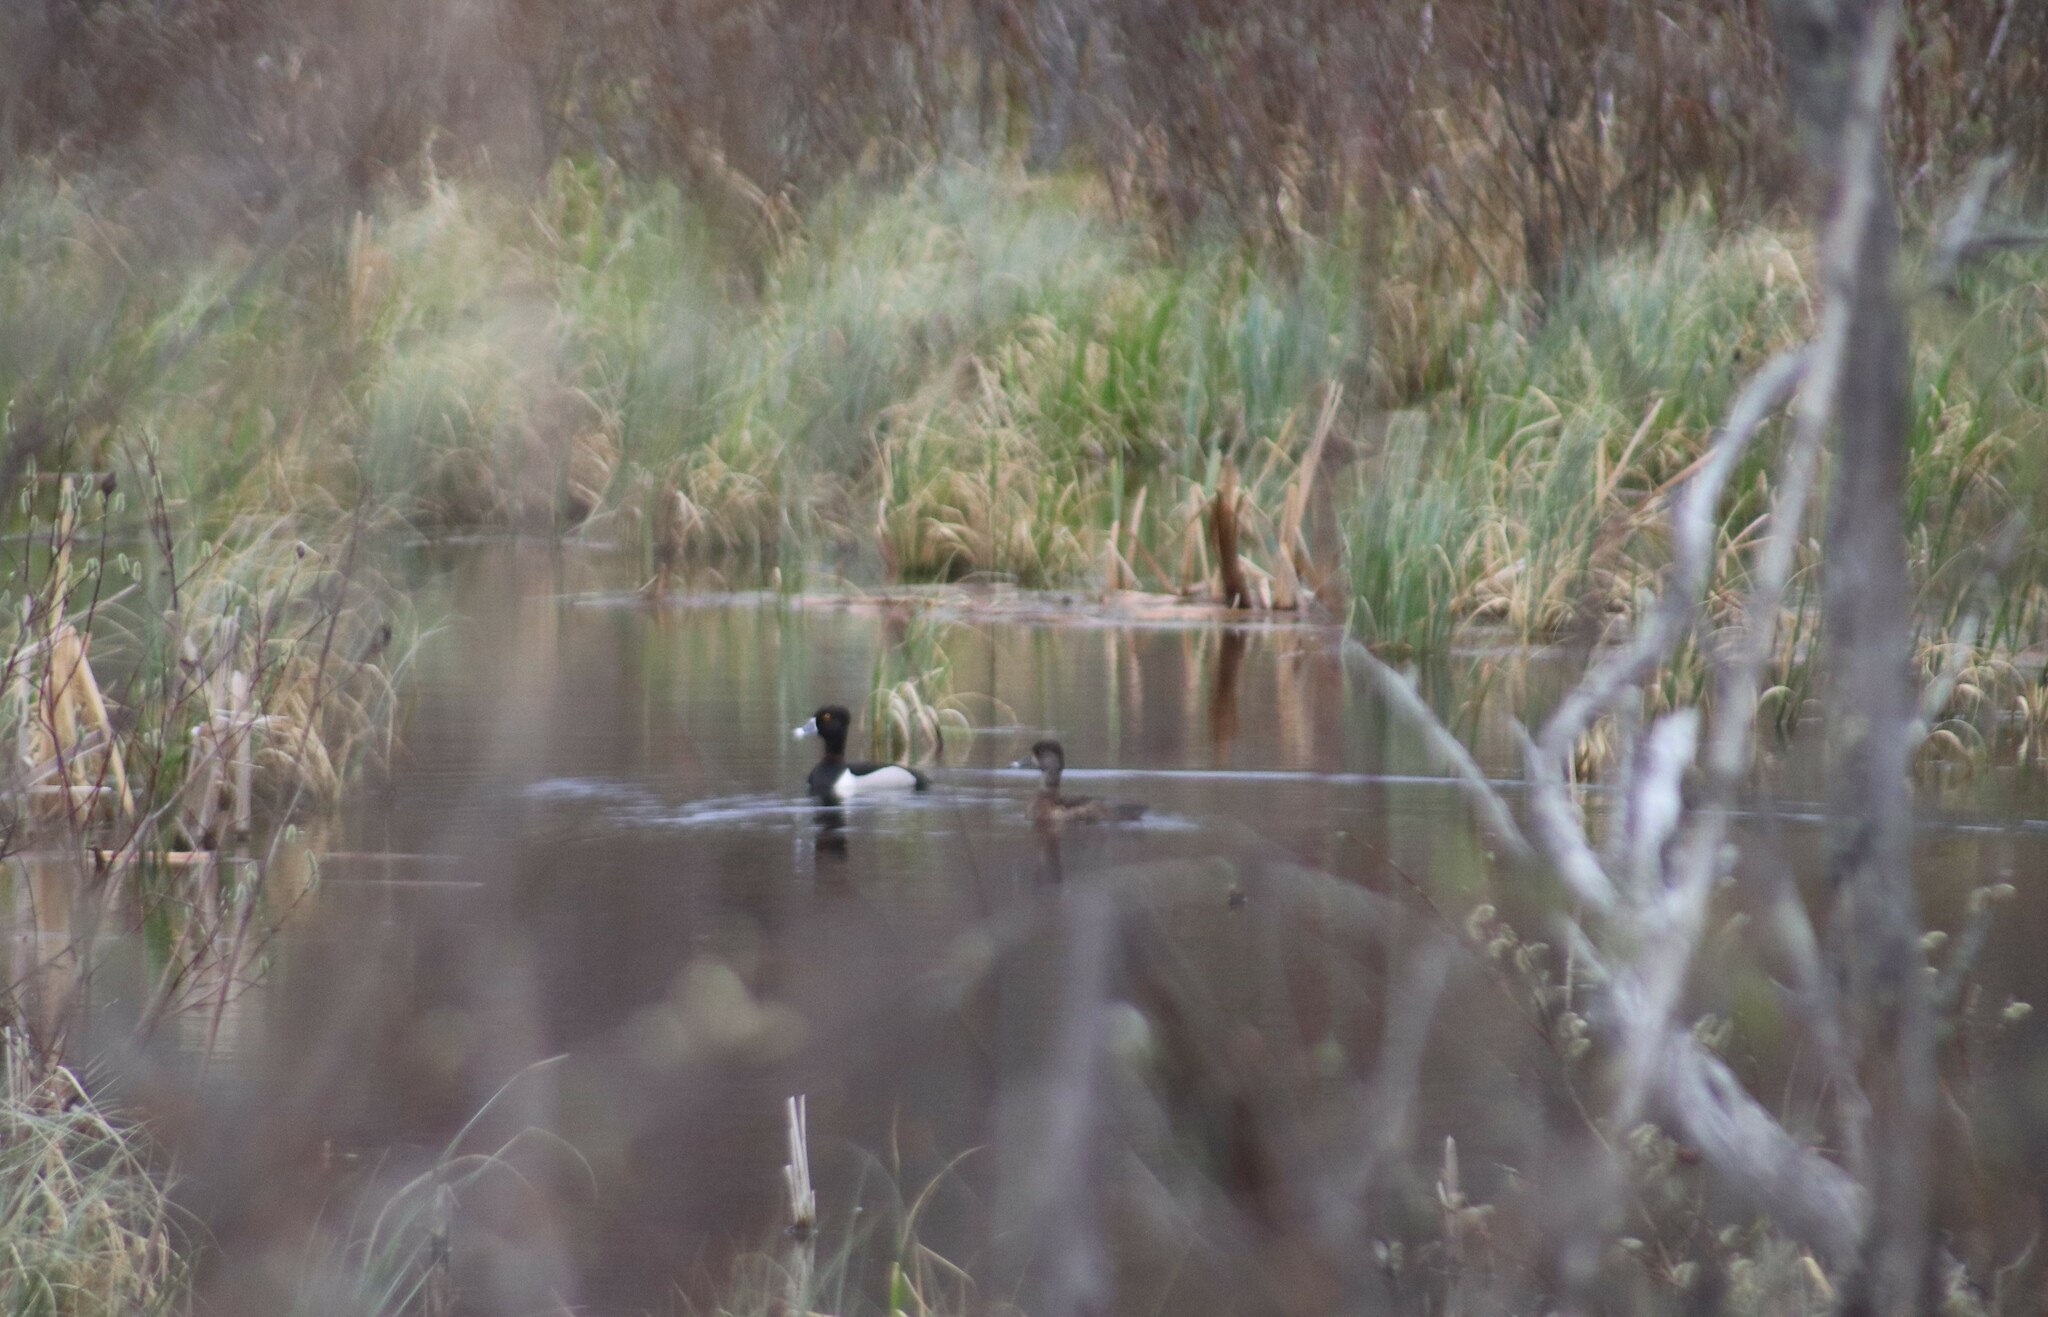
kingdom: Animalia
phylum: Chordata
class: Aves
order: Anseriformes
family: Anatidae
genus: Aythya
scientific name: Aythya collaris
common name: Ring-necked duck
